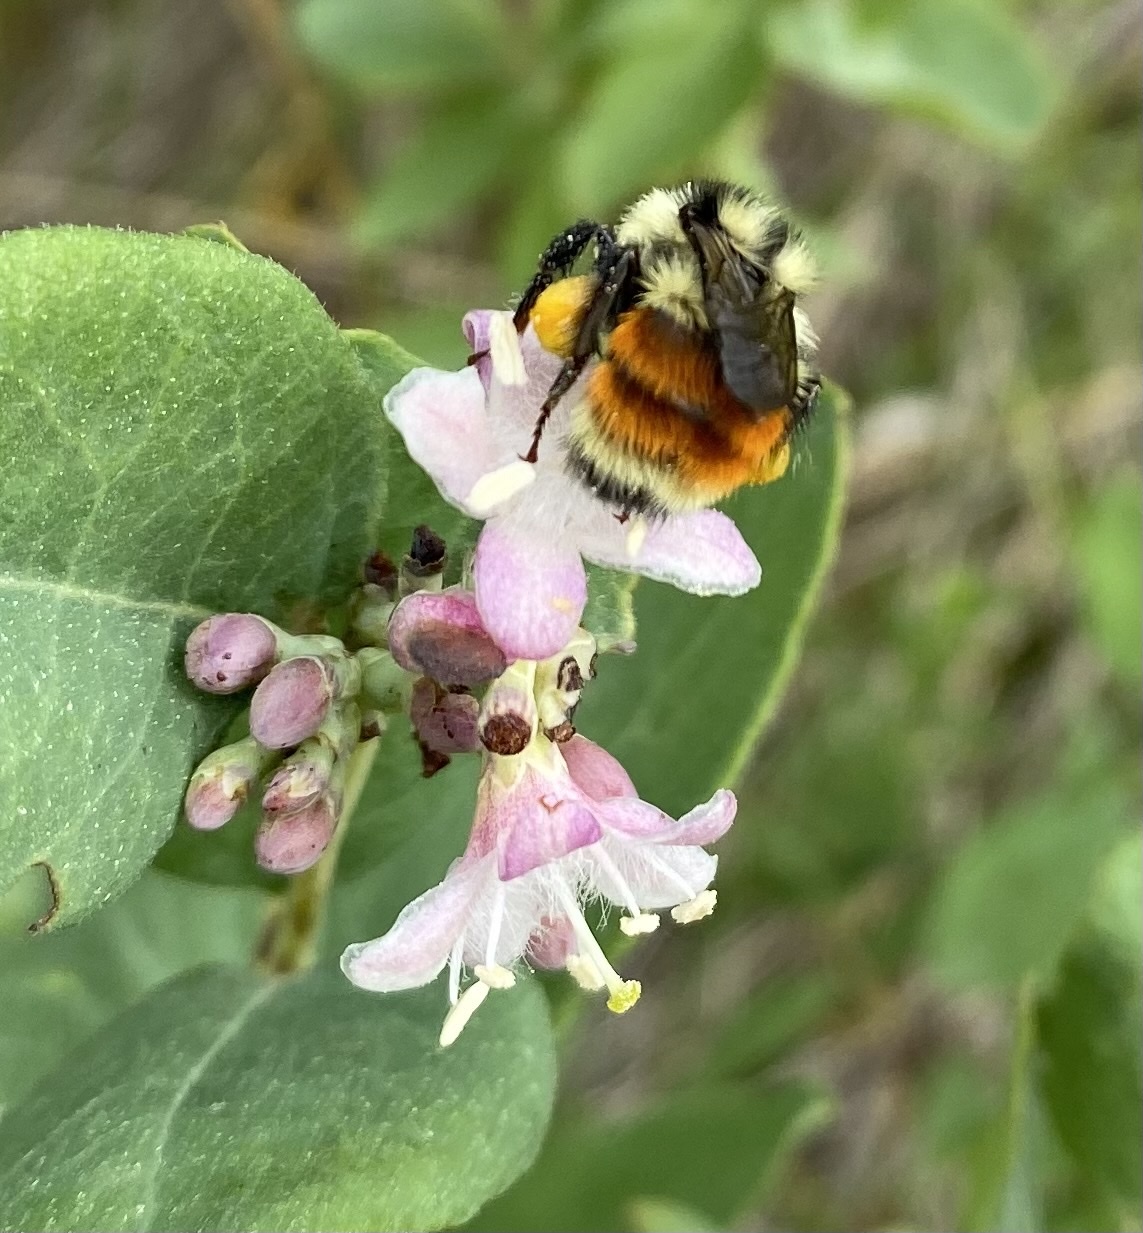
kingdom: Animalia
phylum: Arthropoda
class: Insecta
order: Hymenoptera
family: Apidae
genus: Bombus
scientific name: Bombus ternarius
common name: Tri-colored bumble bee
